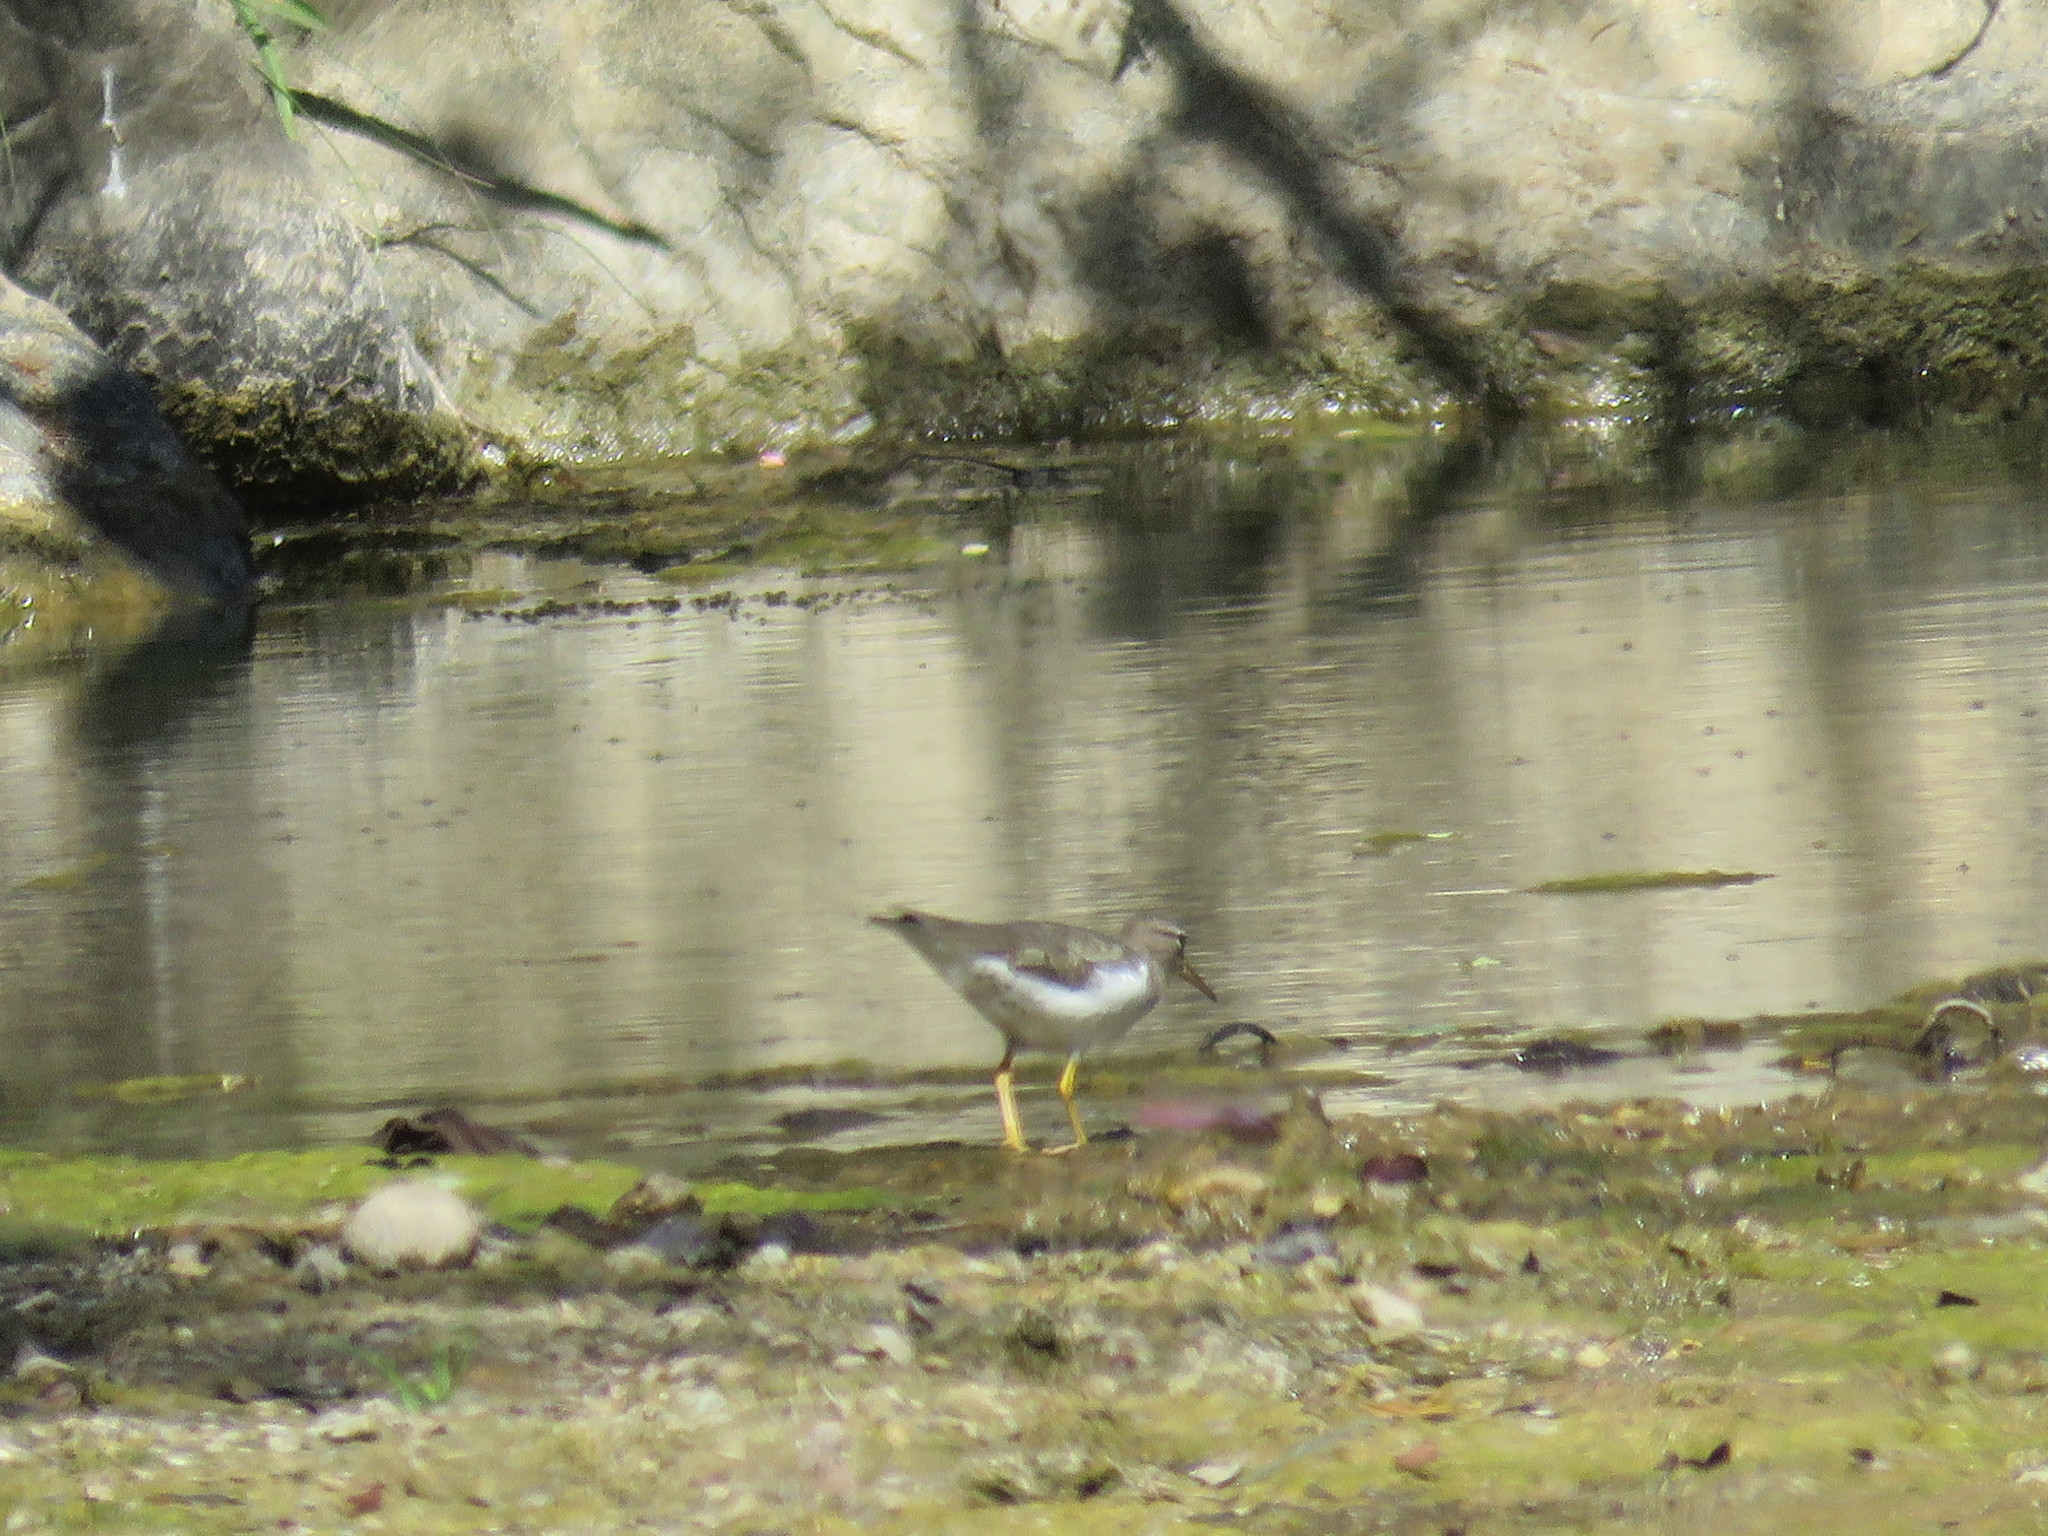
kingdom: Animalia
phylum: Chordata
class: Aves
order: Charadriiformes
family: Scolopacidae
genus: Actitis
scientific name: Actitis macularius
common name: Spotted sandpiper
